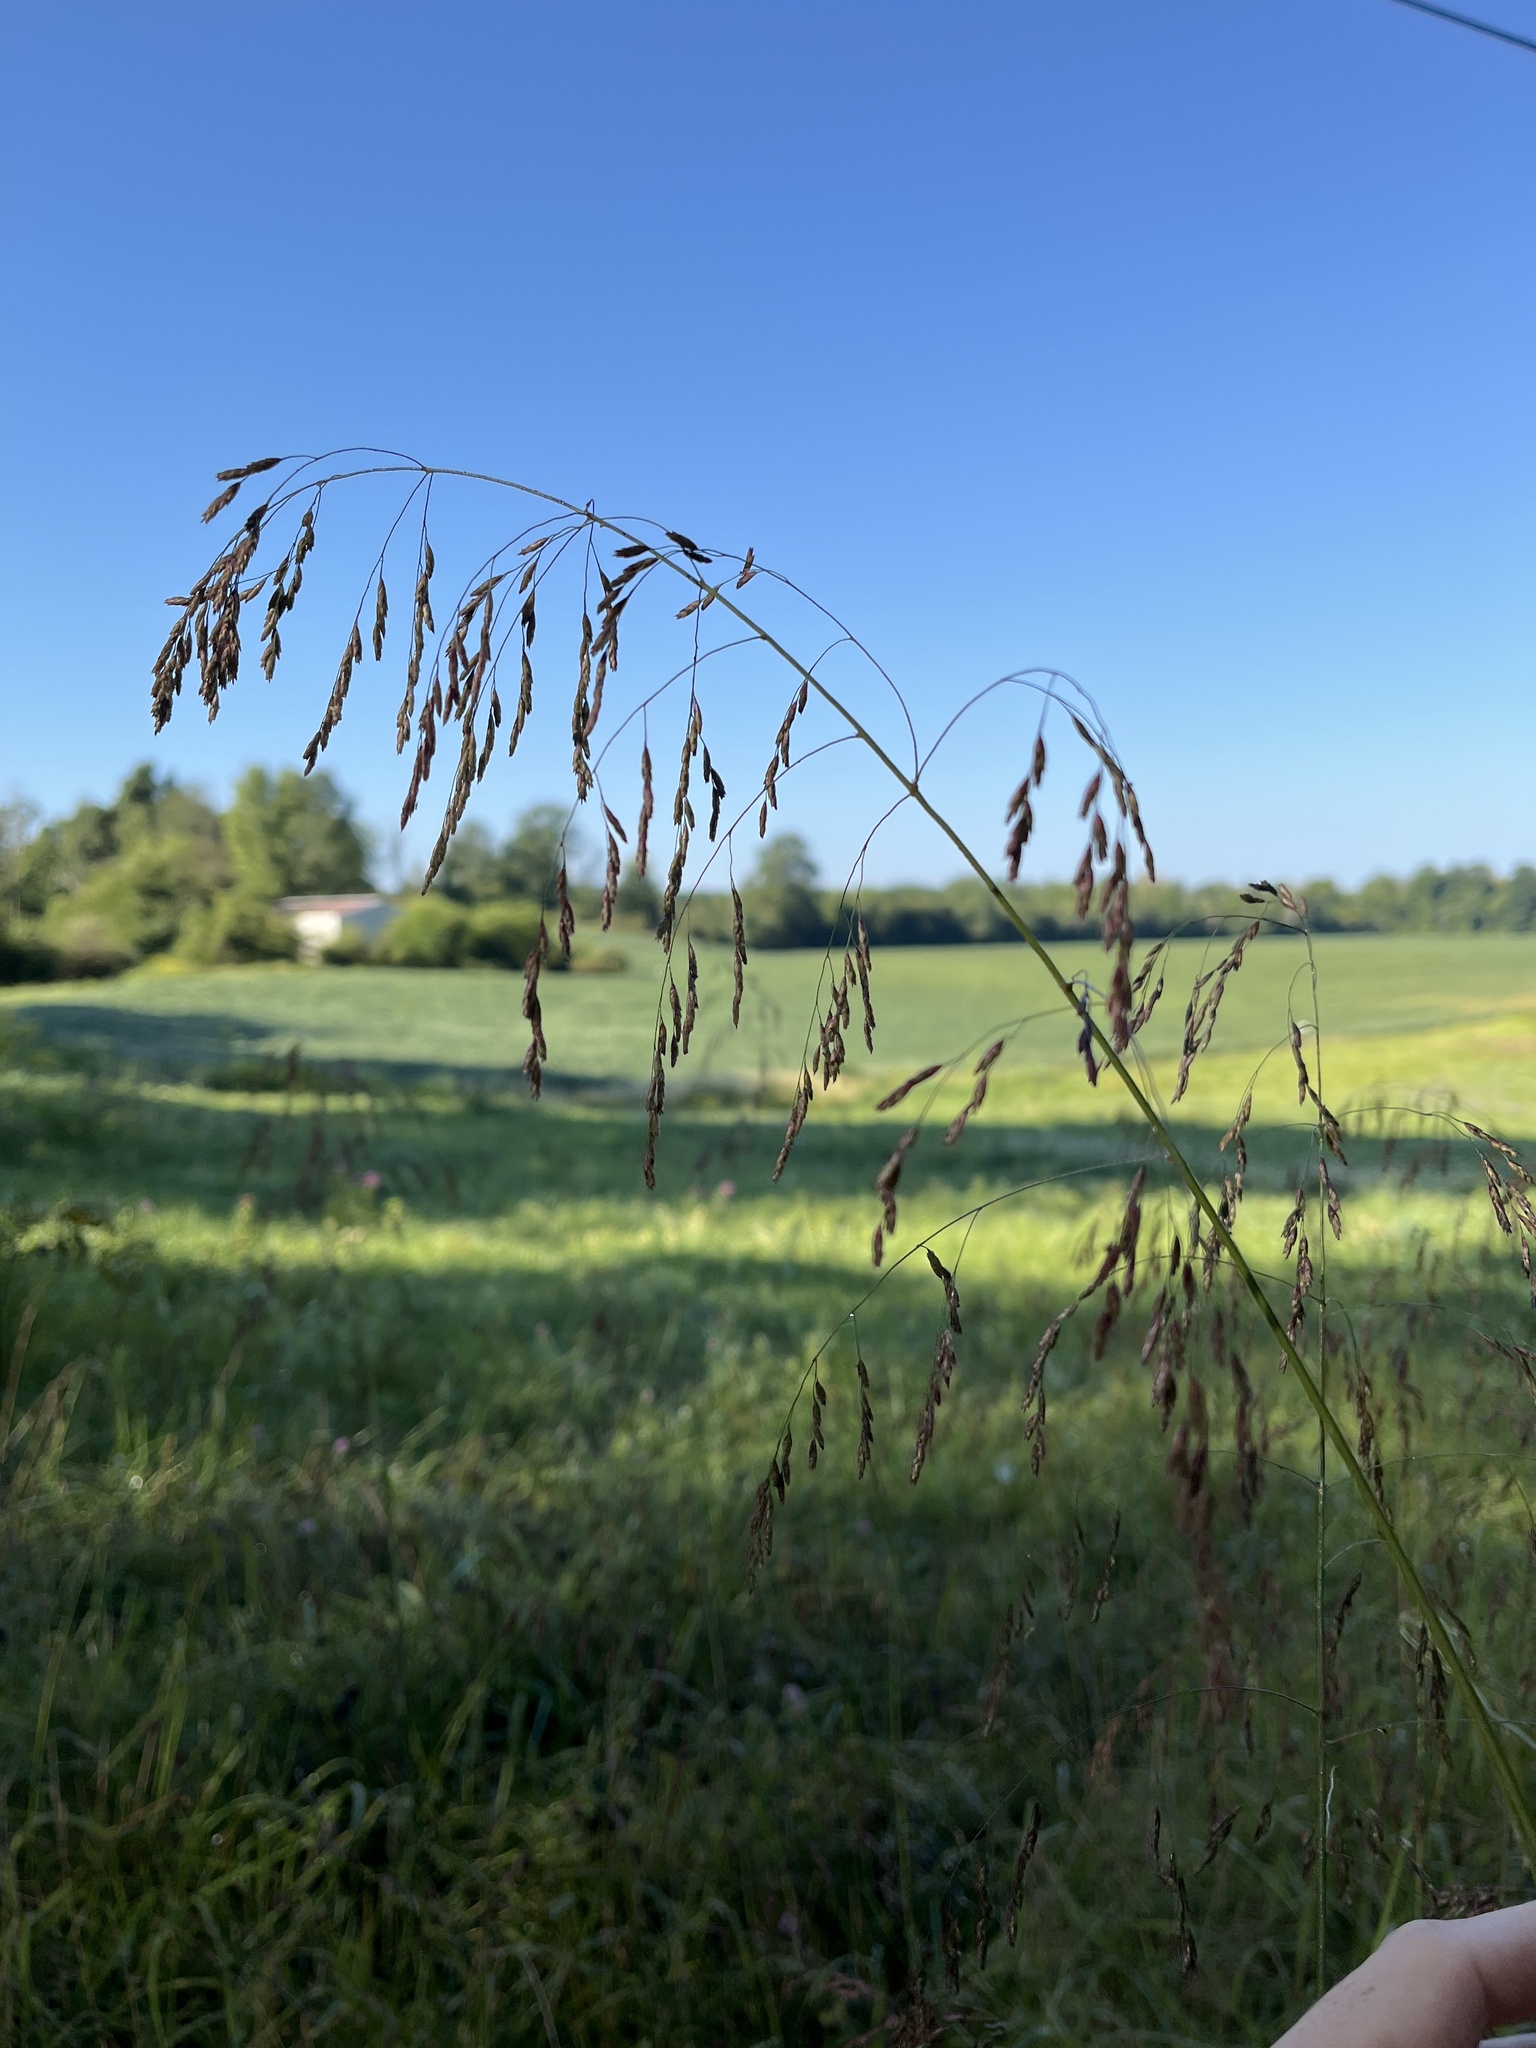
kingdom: Plantae
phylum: Tracheophyta
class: Liliopsida
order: Poales
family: Poaceae
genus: Tridens
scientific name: Tridens flavus
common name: Purpletop
